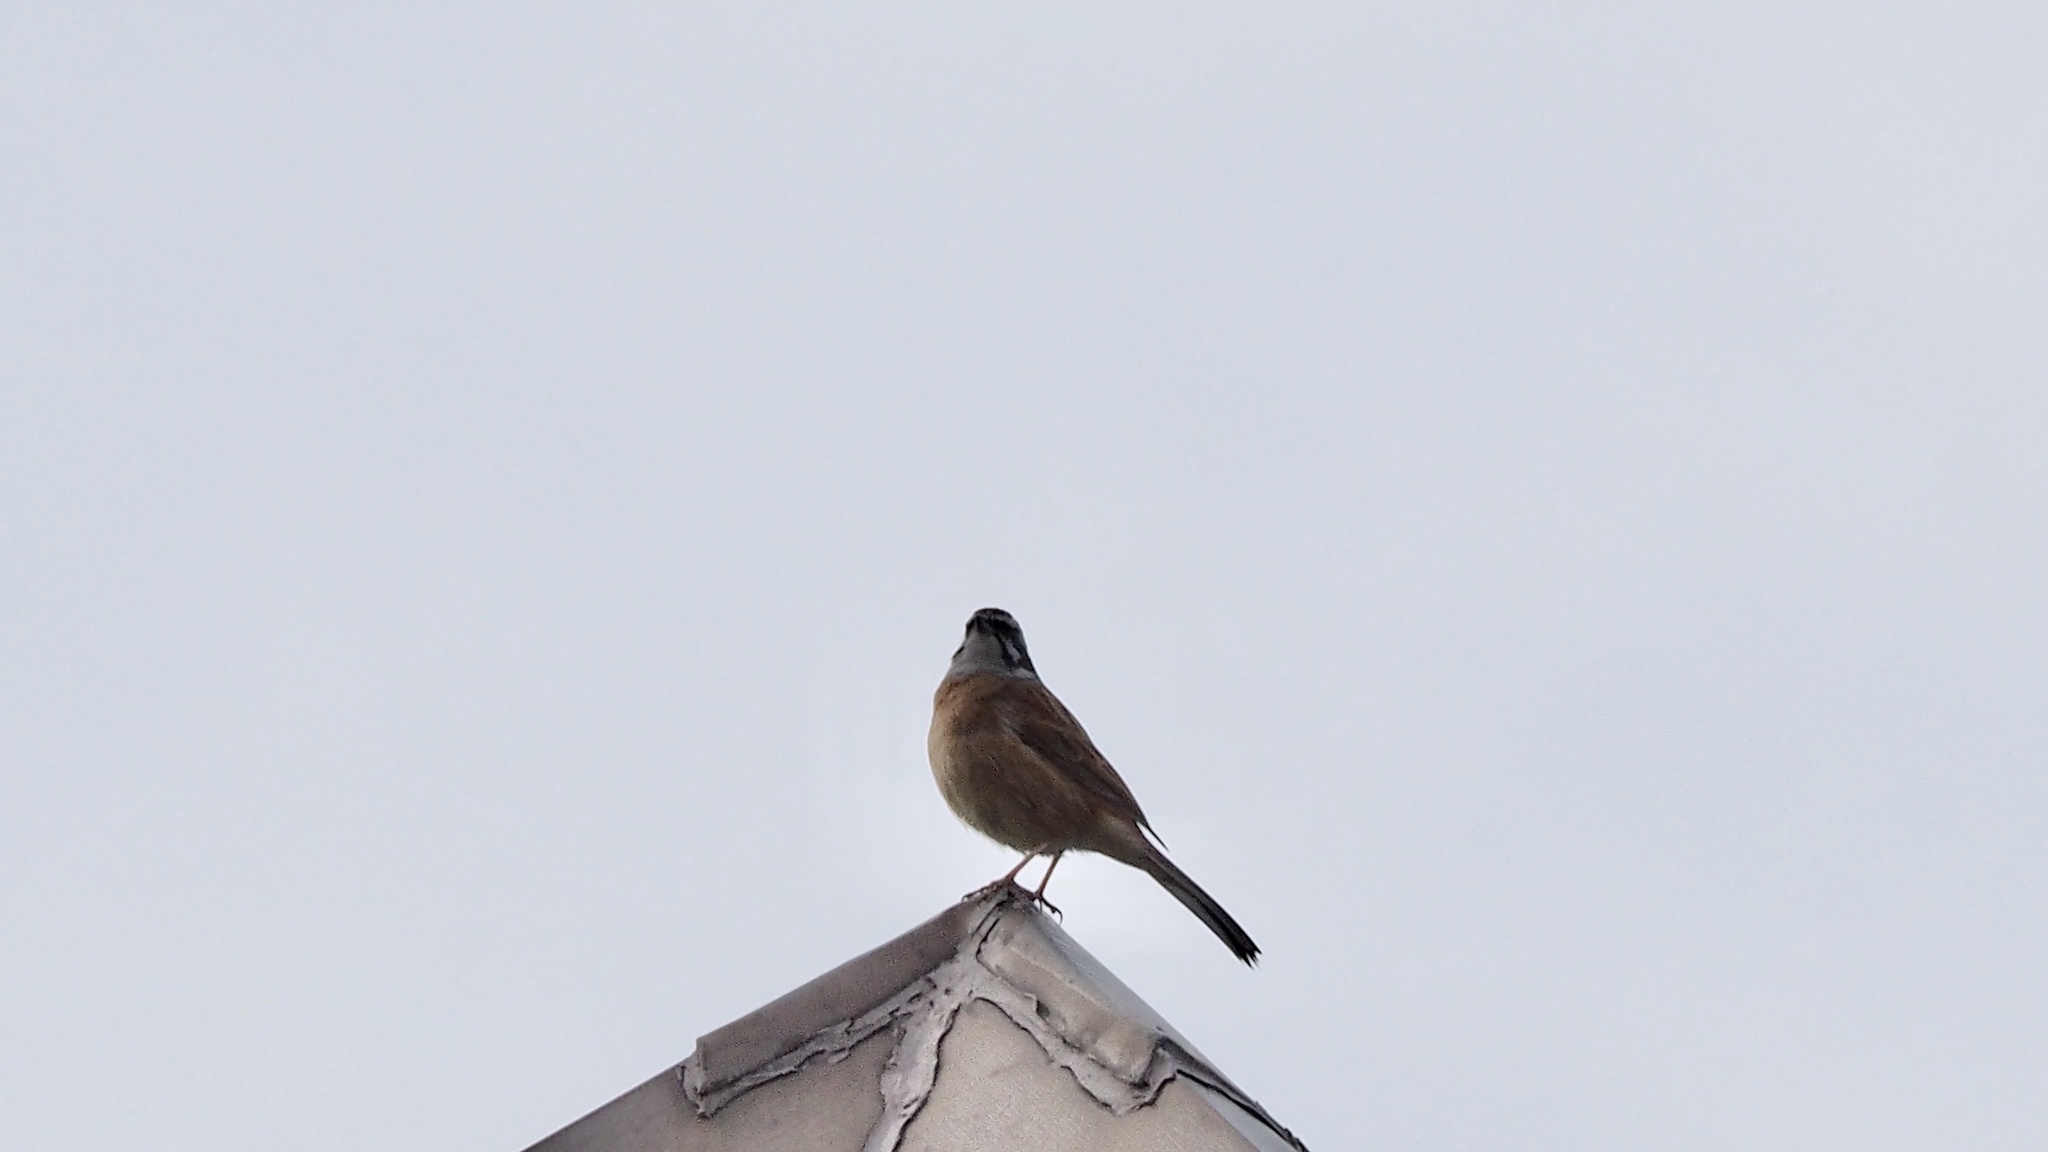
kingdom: Animalia
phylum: Chordata
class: Aves
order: Passeriformes
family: Emberizidae
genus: Emberiza
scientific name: Emberiza cioides
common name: Meadow bunting
